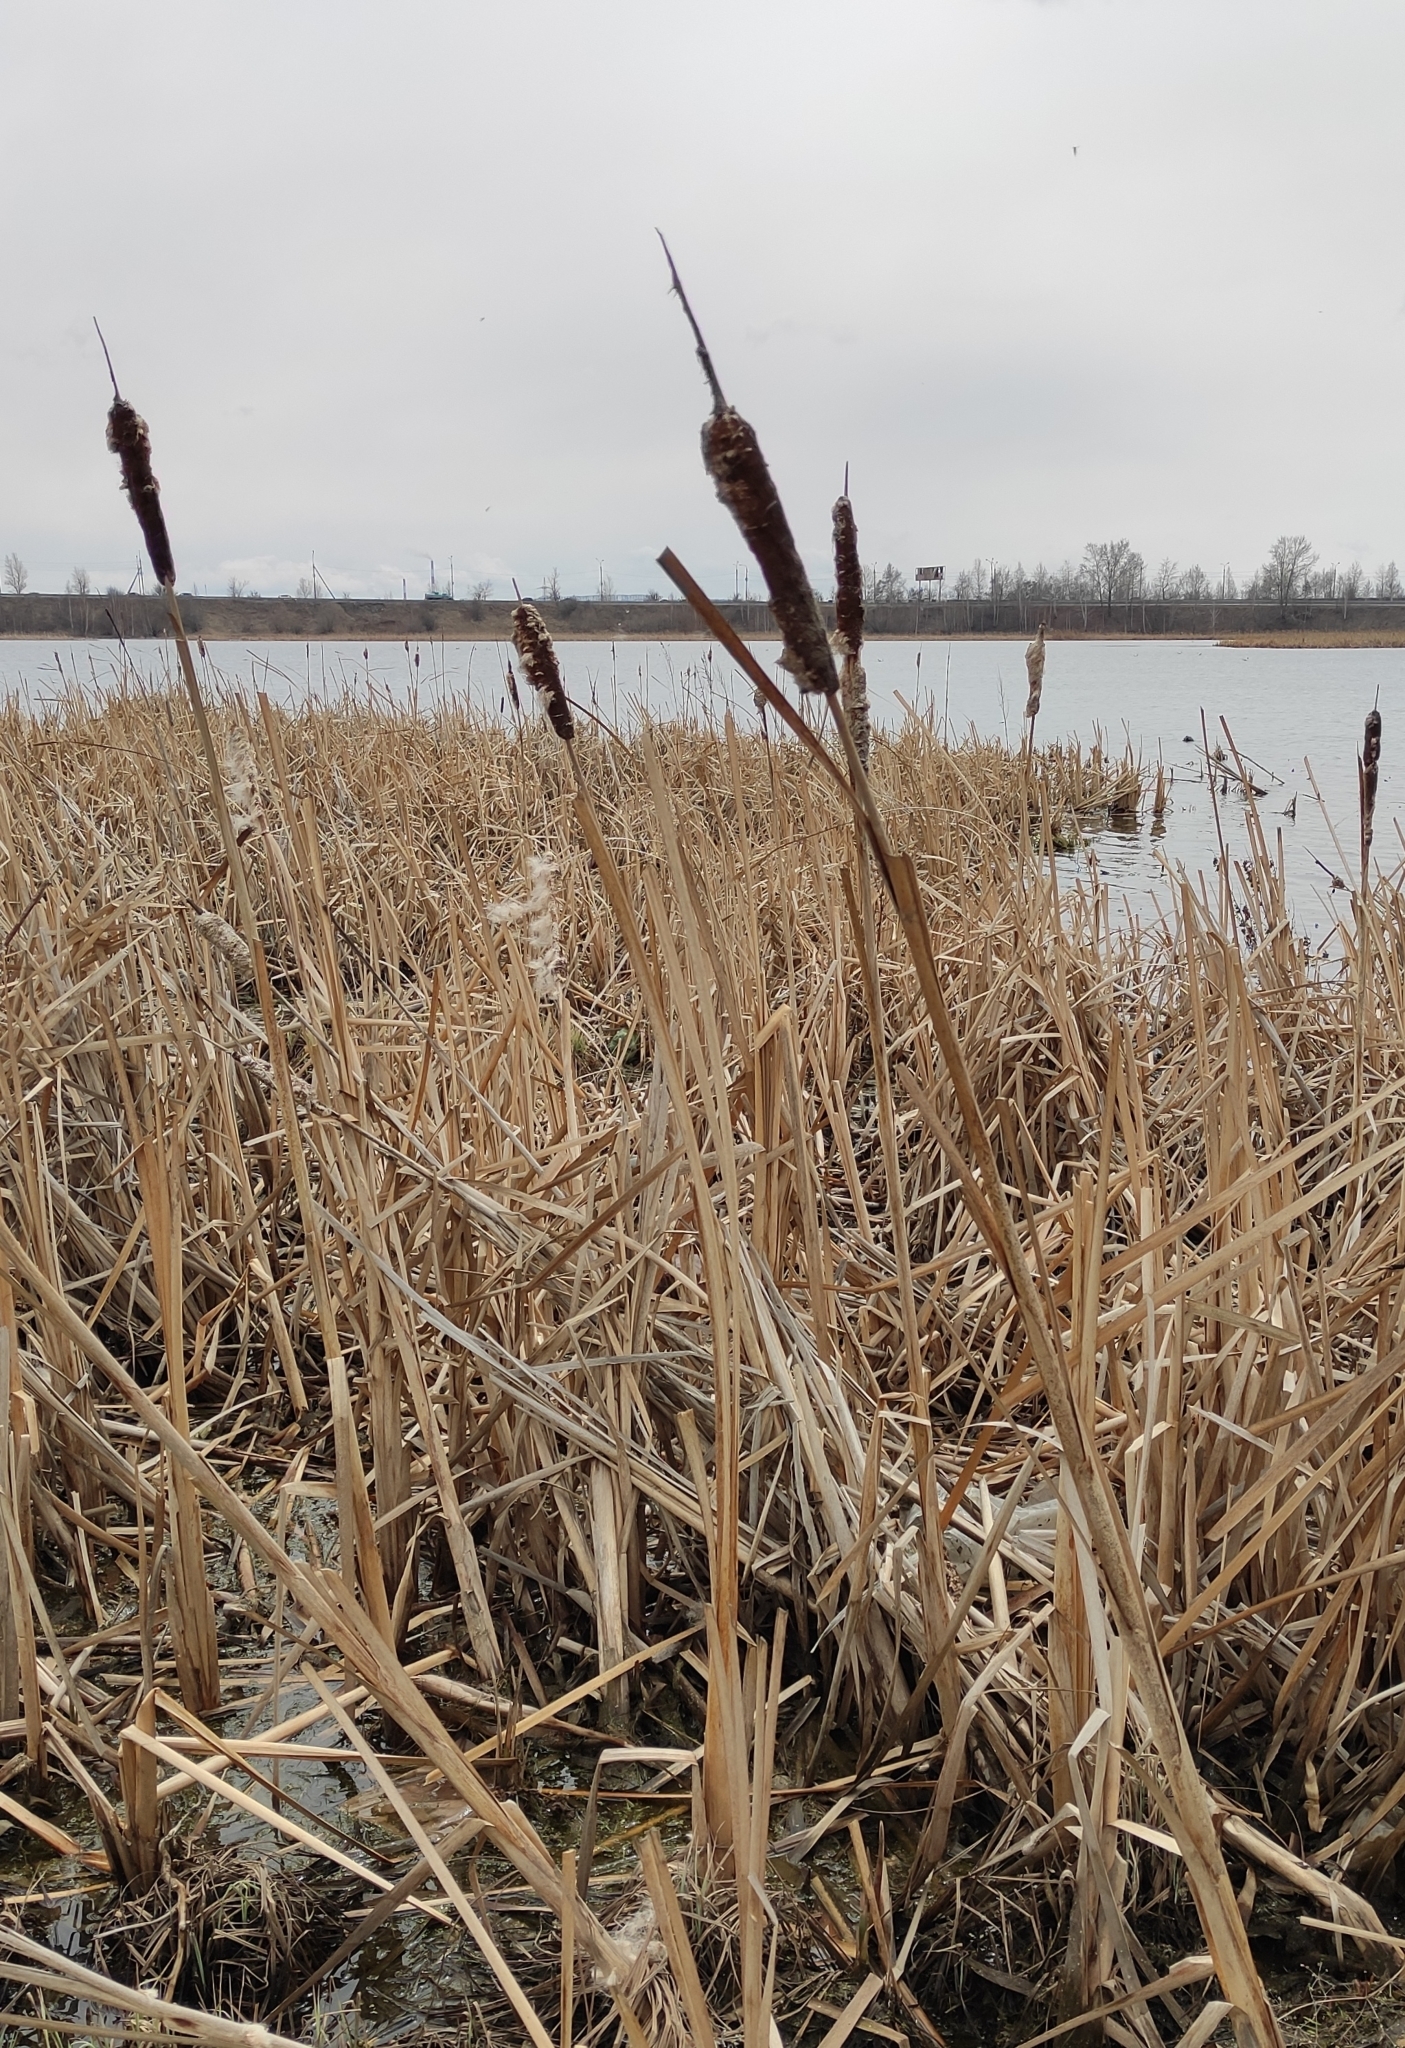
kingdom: Plantae
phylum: Tracheophyta
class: Liliopsida
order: Poales
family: Typhaceae
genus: Typha
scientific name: Typha latifolia
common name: Broadleaf cattail
